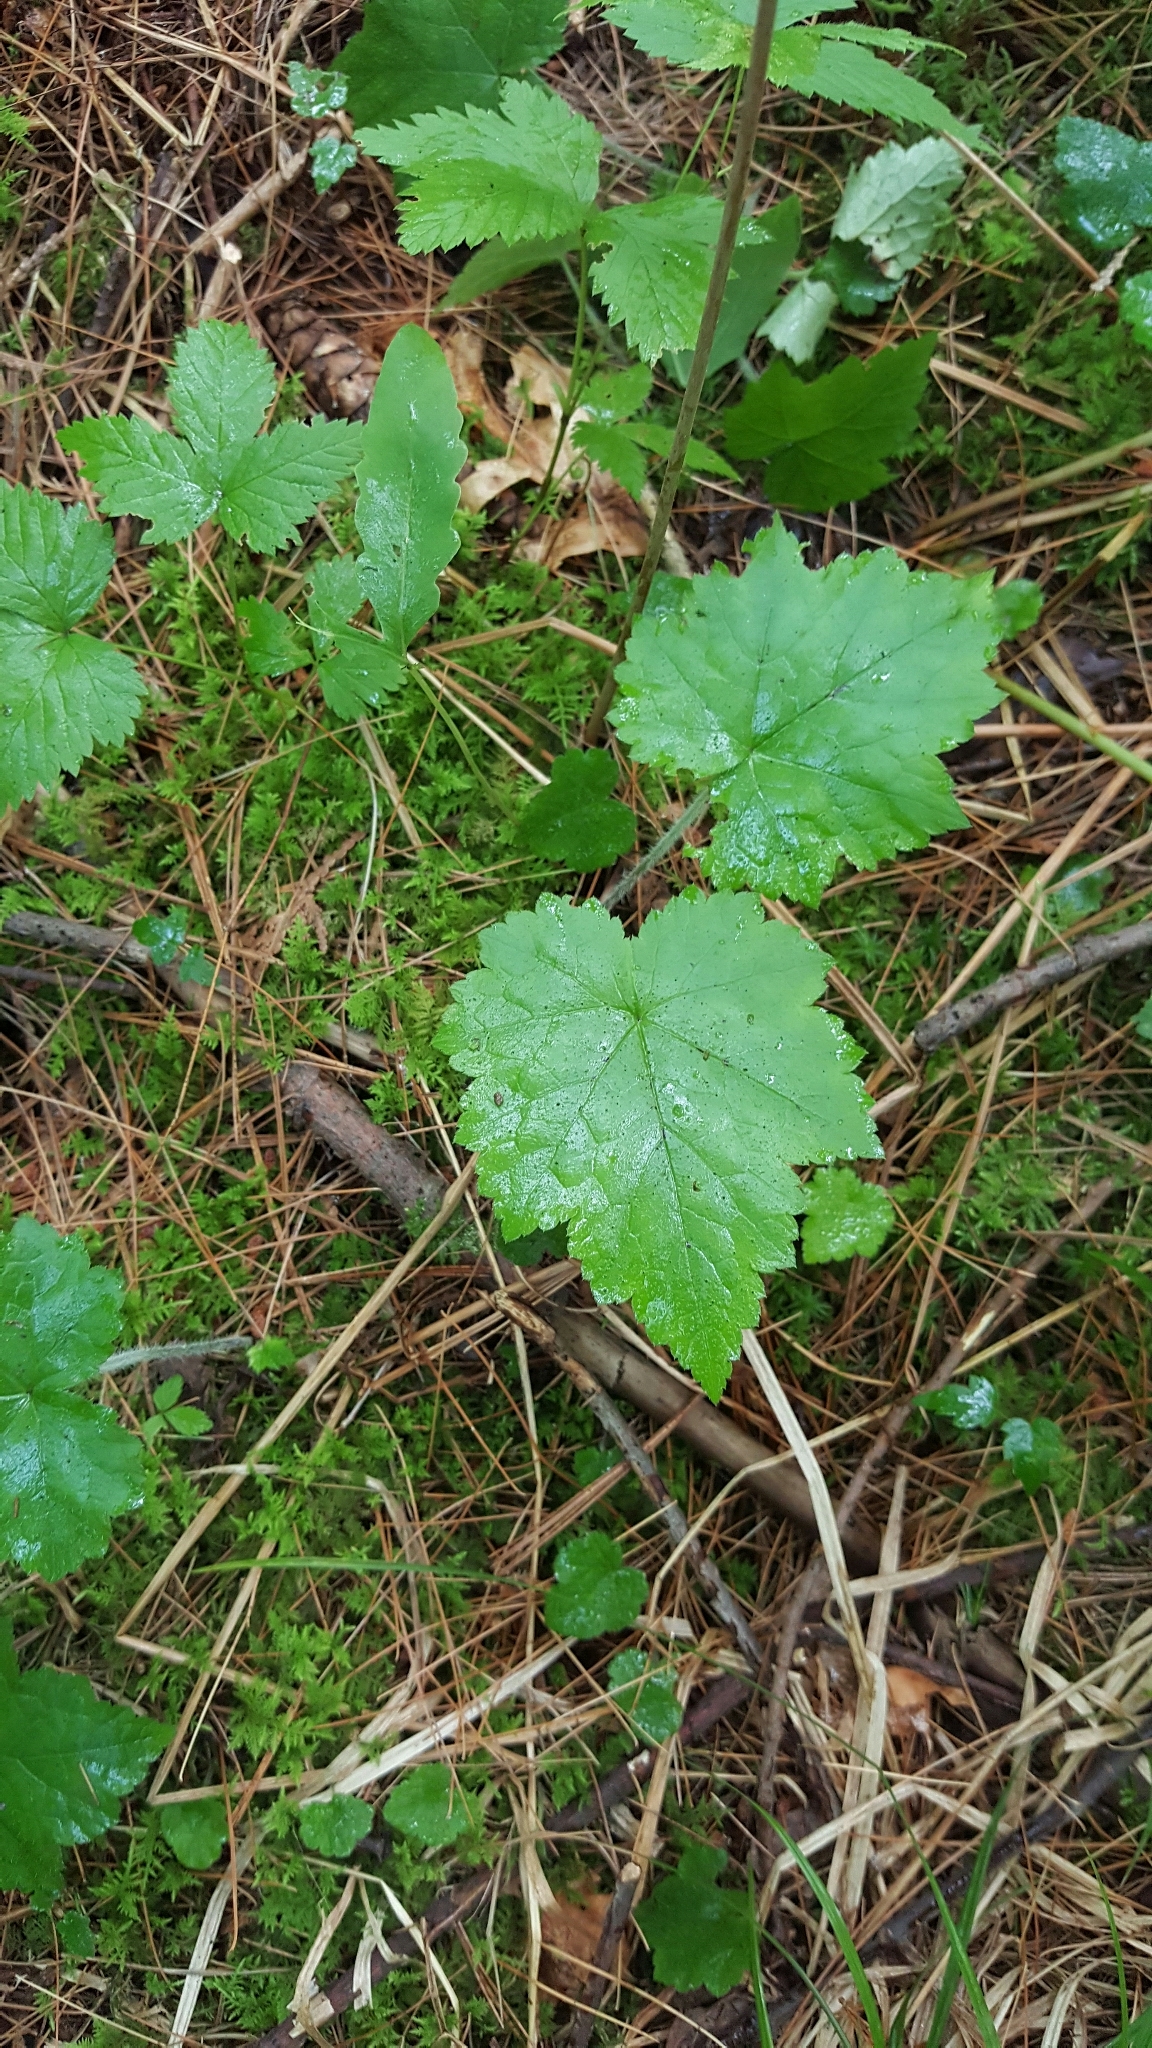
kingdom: Plantae
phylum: Tracheophyta
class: Magnoliopsida
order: Saxifragales
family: Saxifragaceae
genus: Tiarella
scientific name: Tiarella stolonifera
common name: Stoloniferous foamflower
